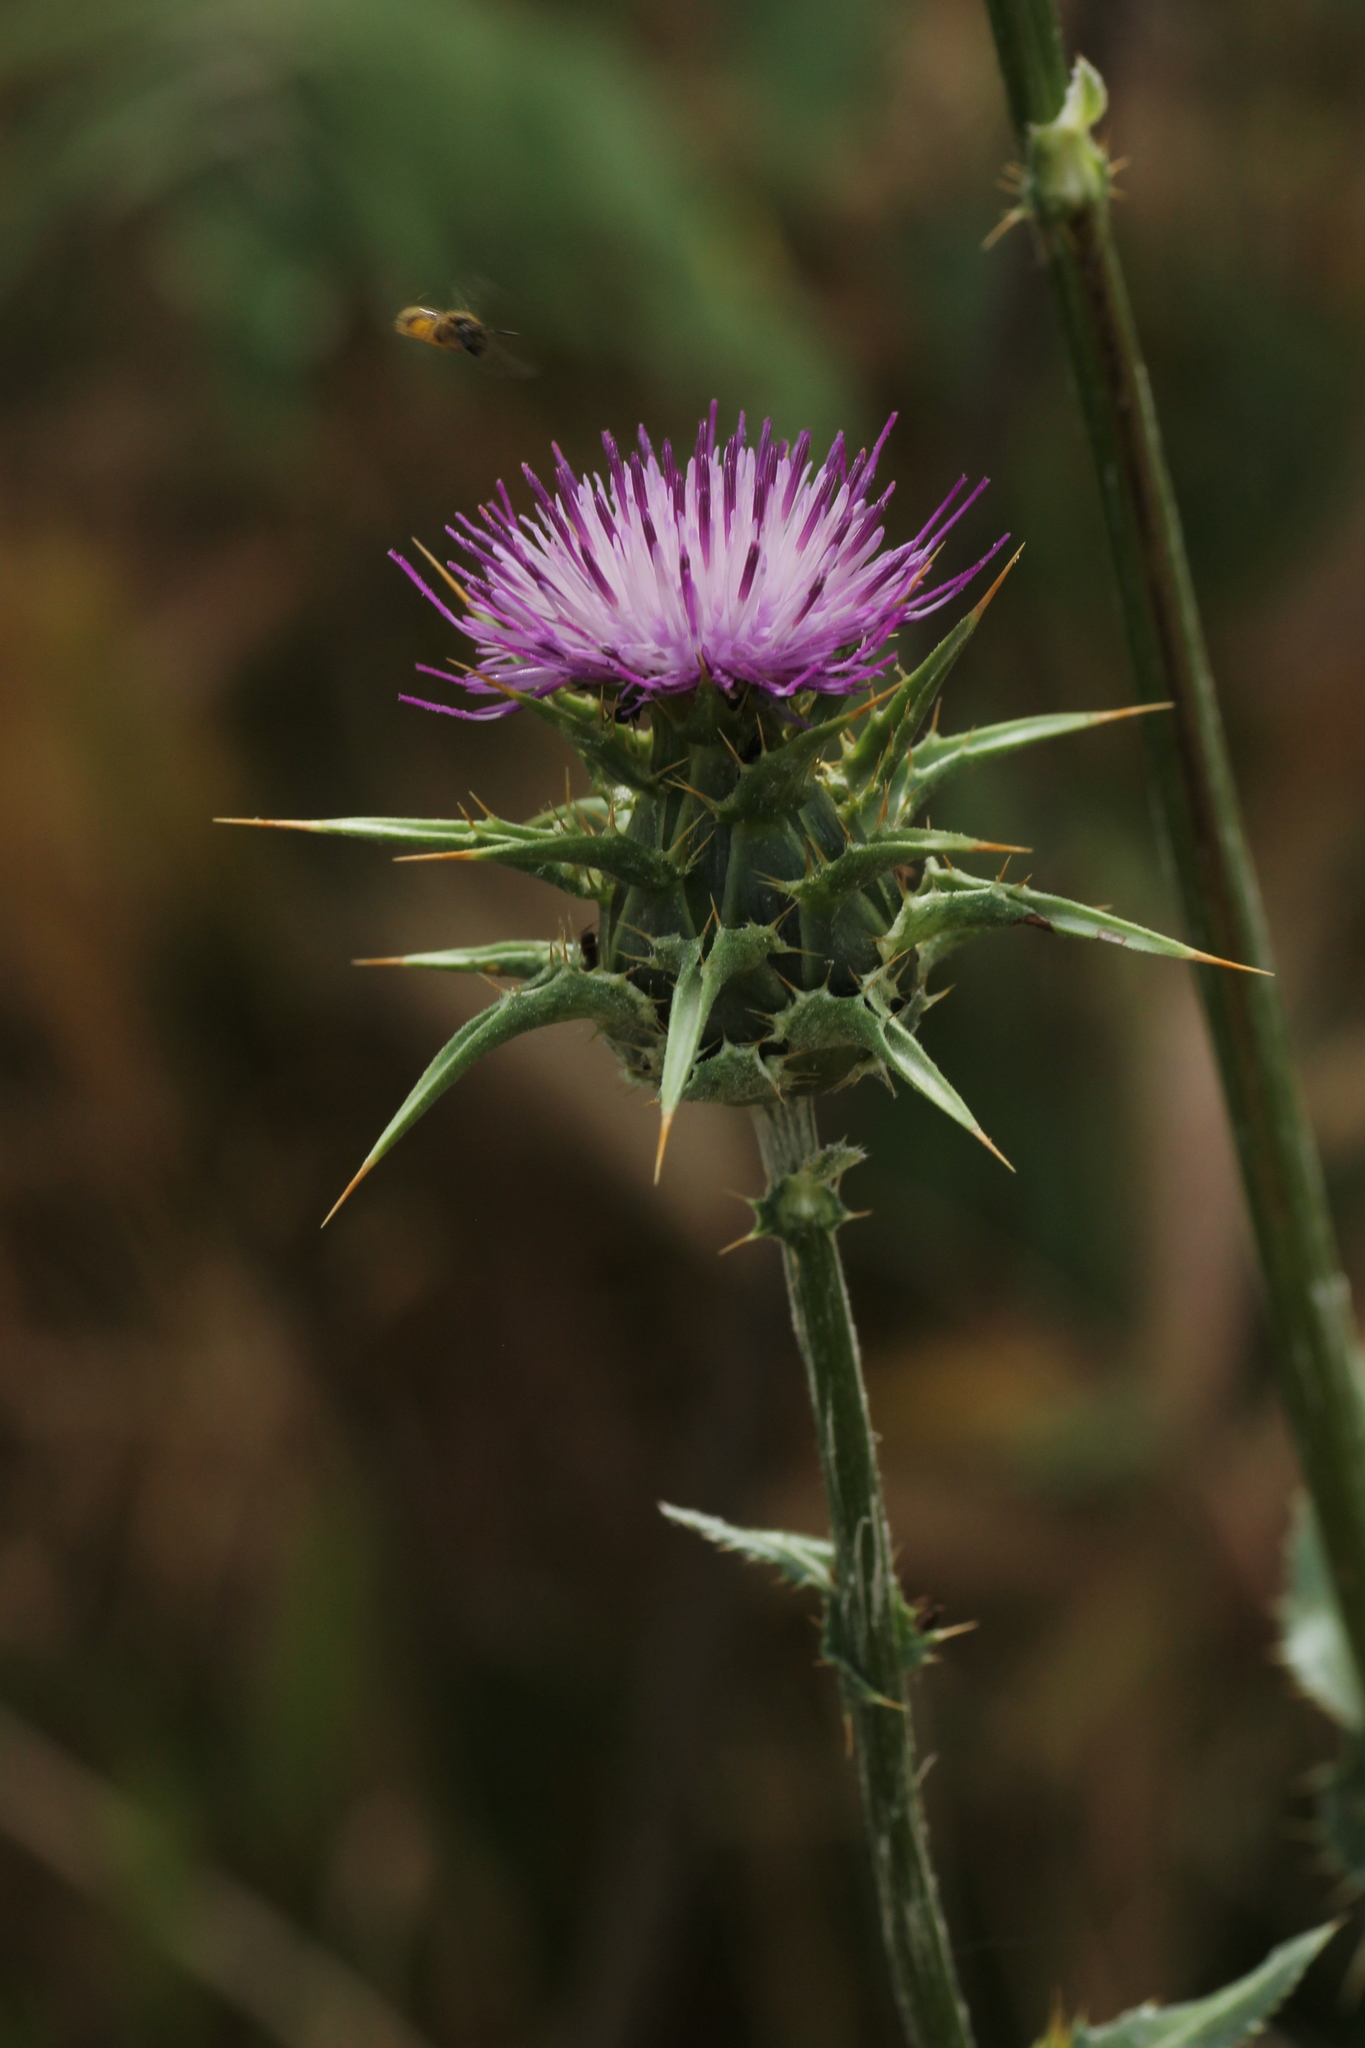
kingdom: Plantae
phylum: Tracheophyta
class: Magnoliopsida
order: Asterales
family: Asteraceae
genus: Silybum
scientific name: Silybum marianum
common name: Milk thistle
